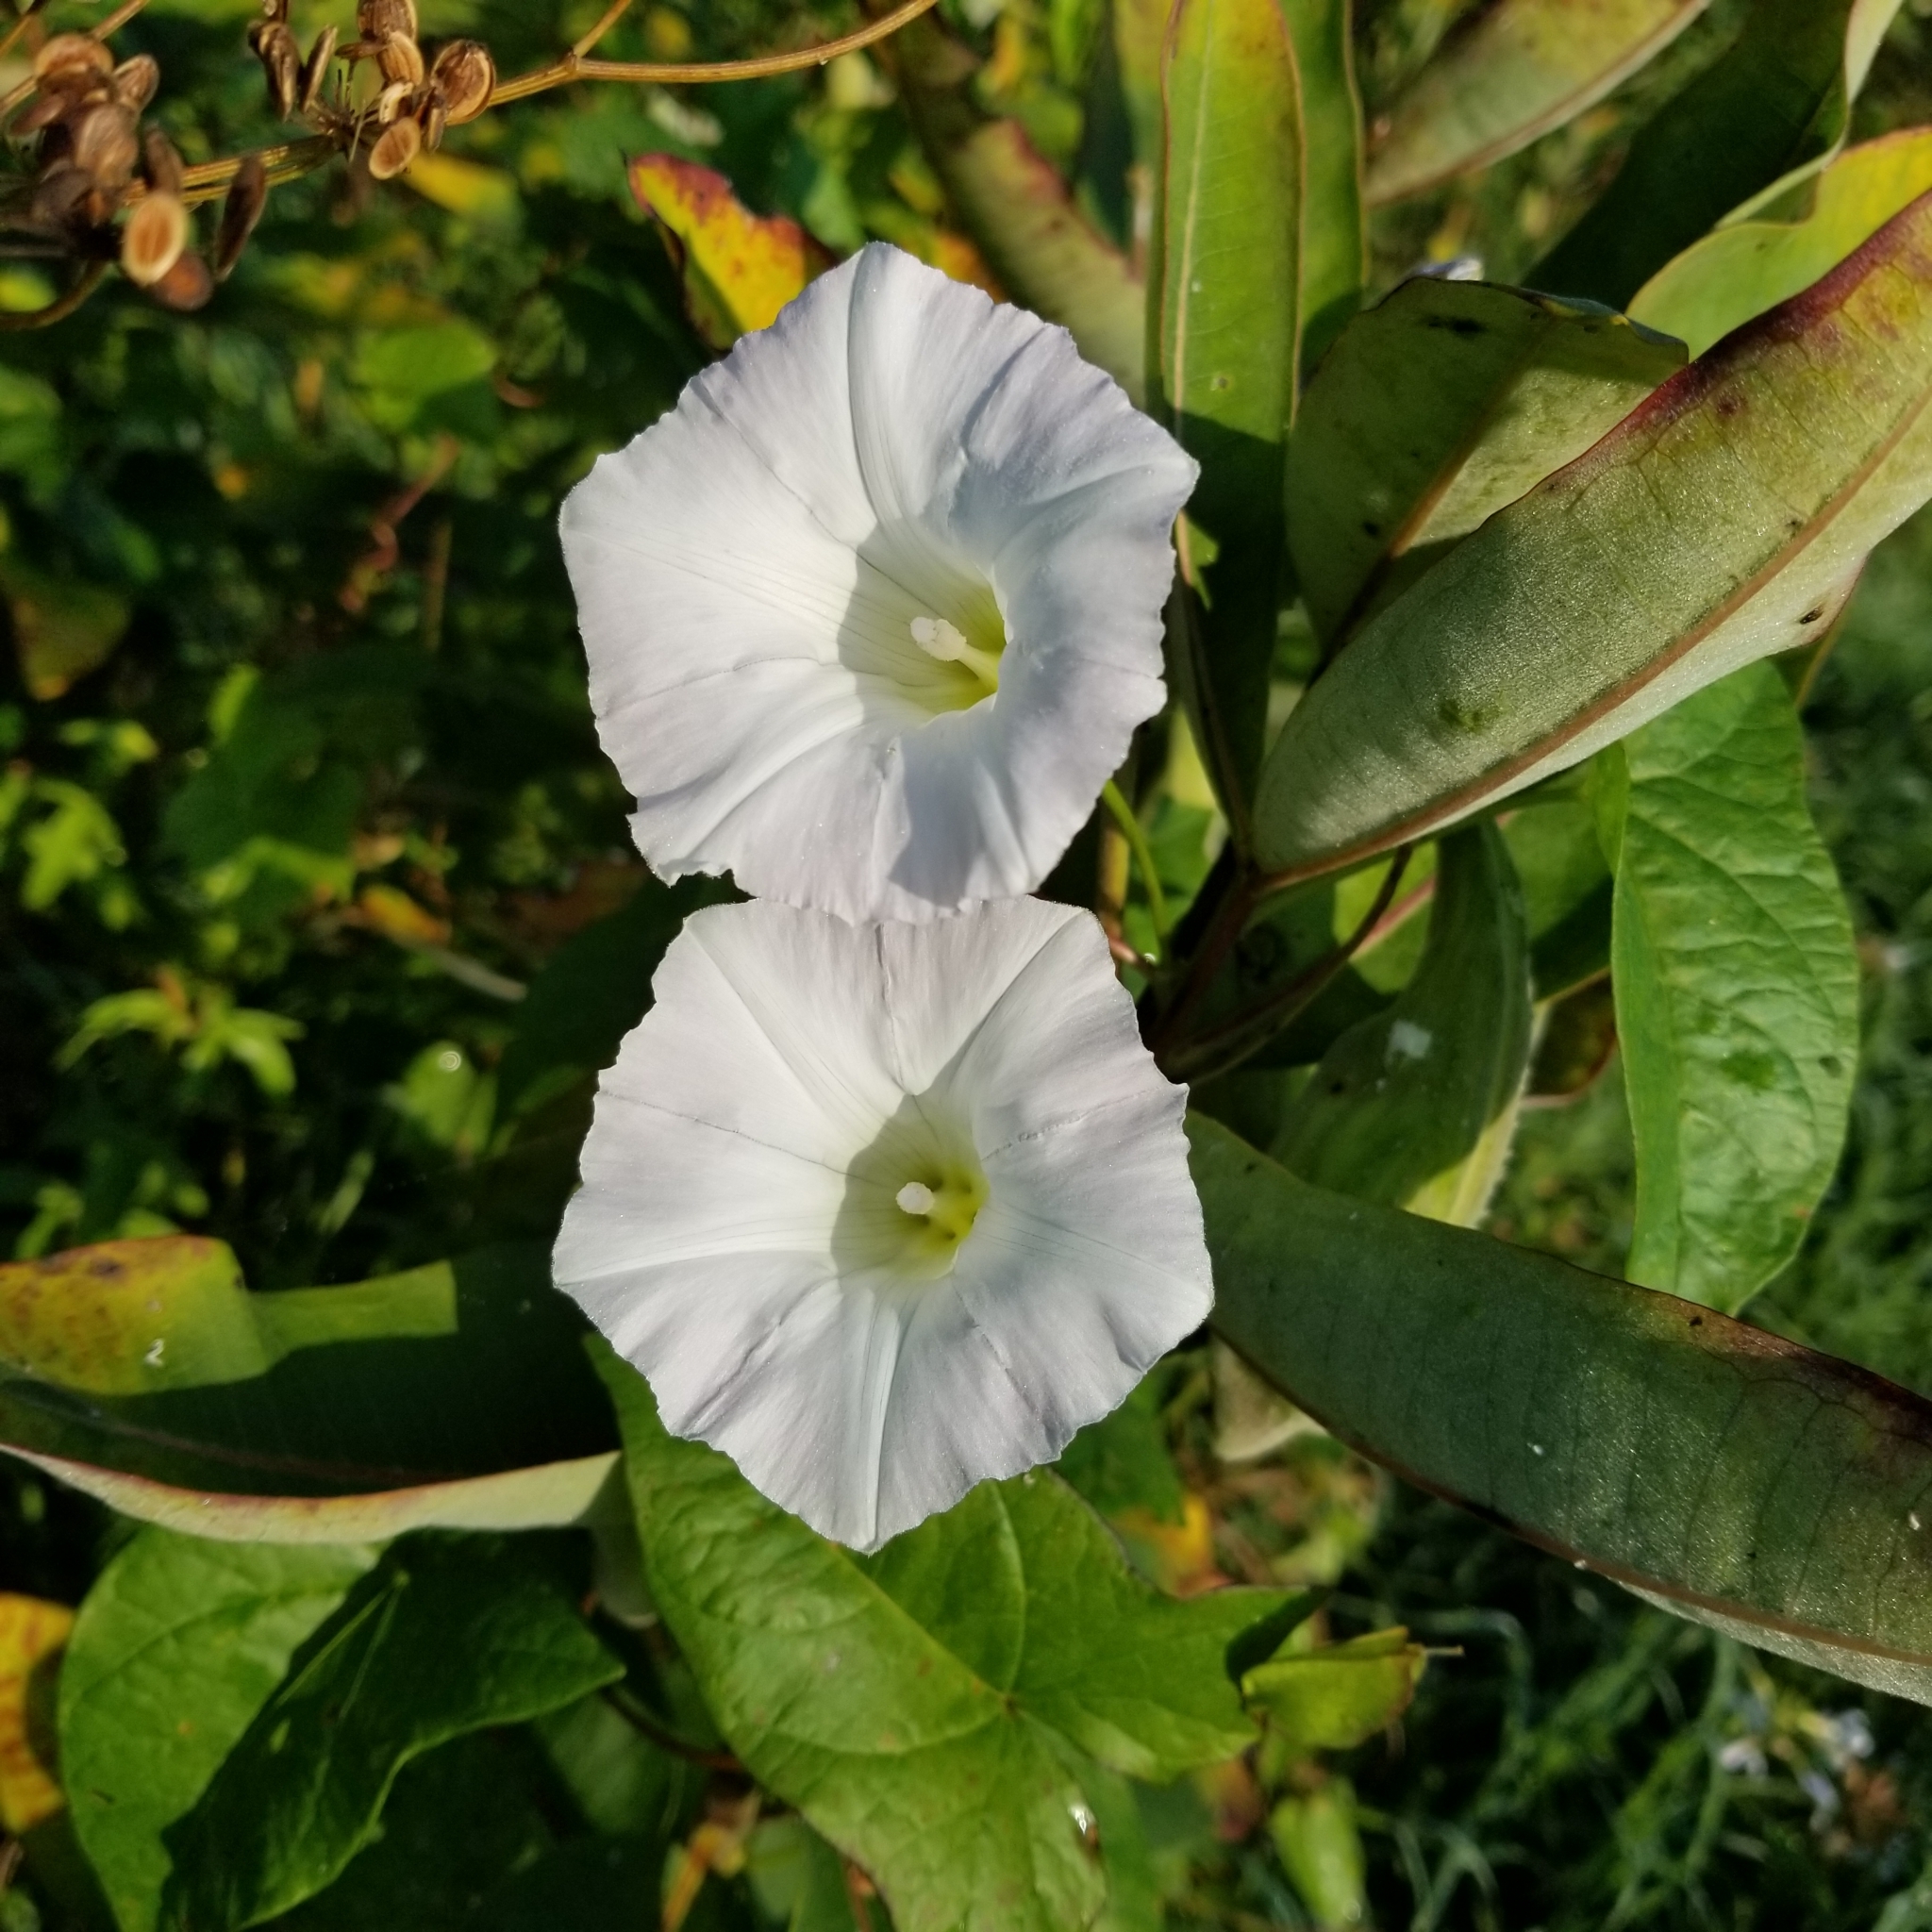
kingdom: Plantae
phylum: Tracheophyta
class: Magnoliopsida
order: Solanales
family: Convolvulaceae
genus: Calystegia
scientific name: Calystegia sepium
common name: Hedge bindweed
